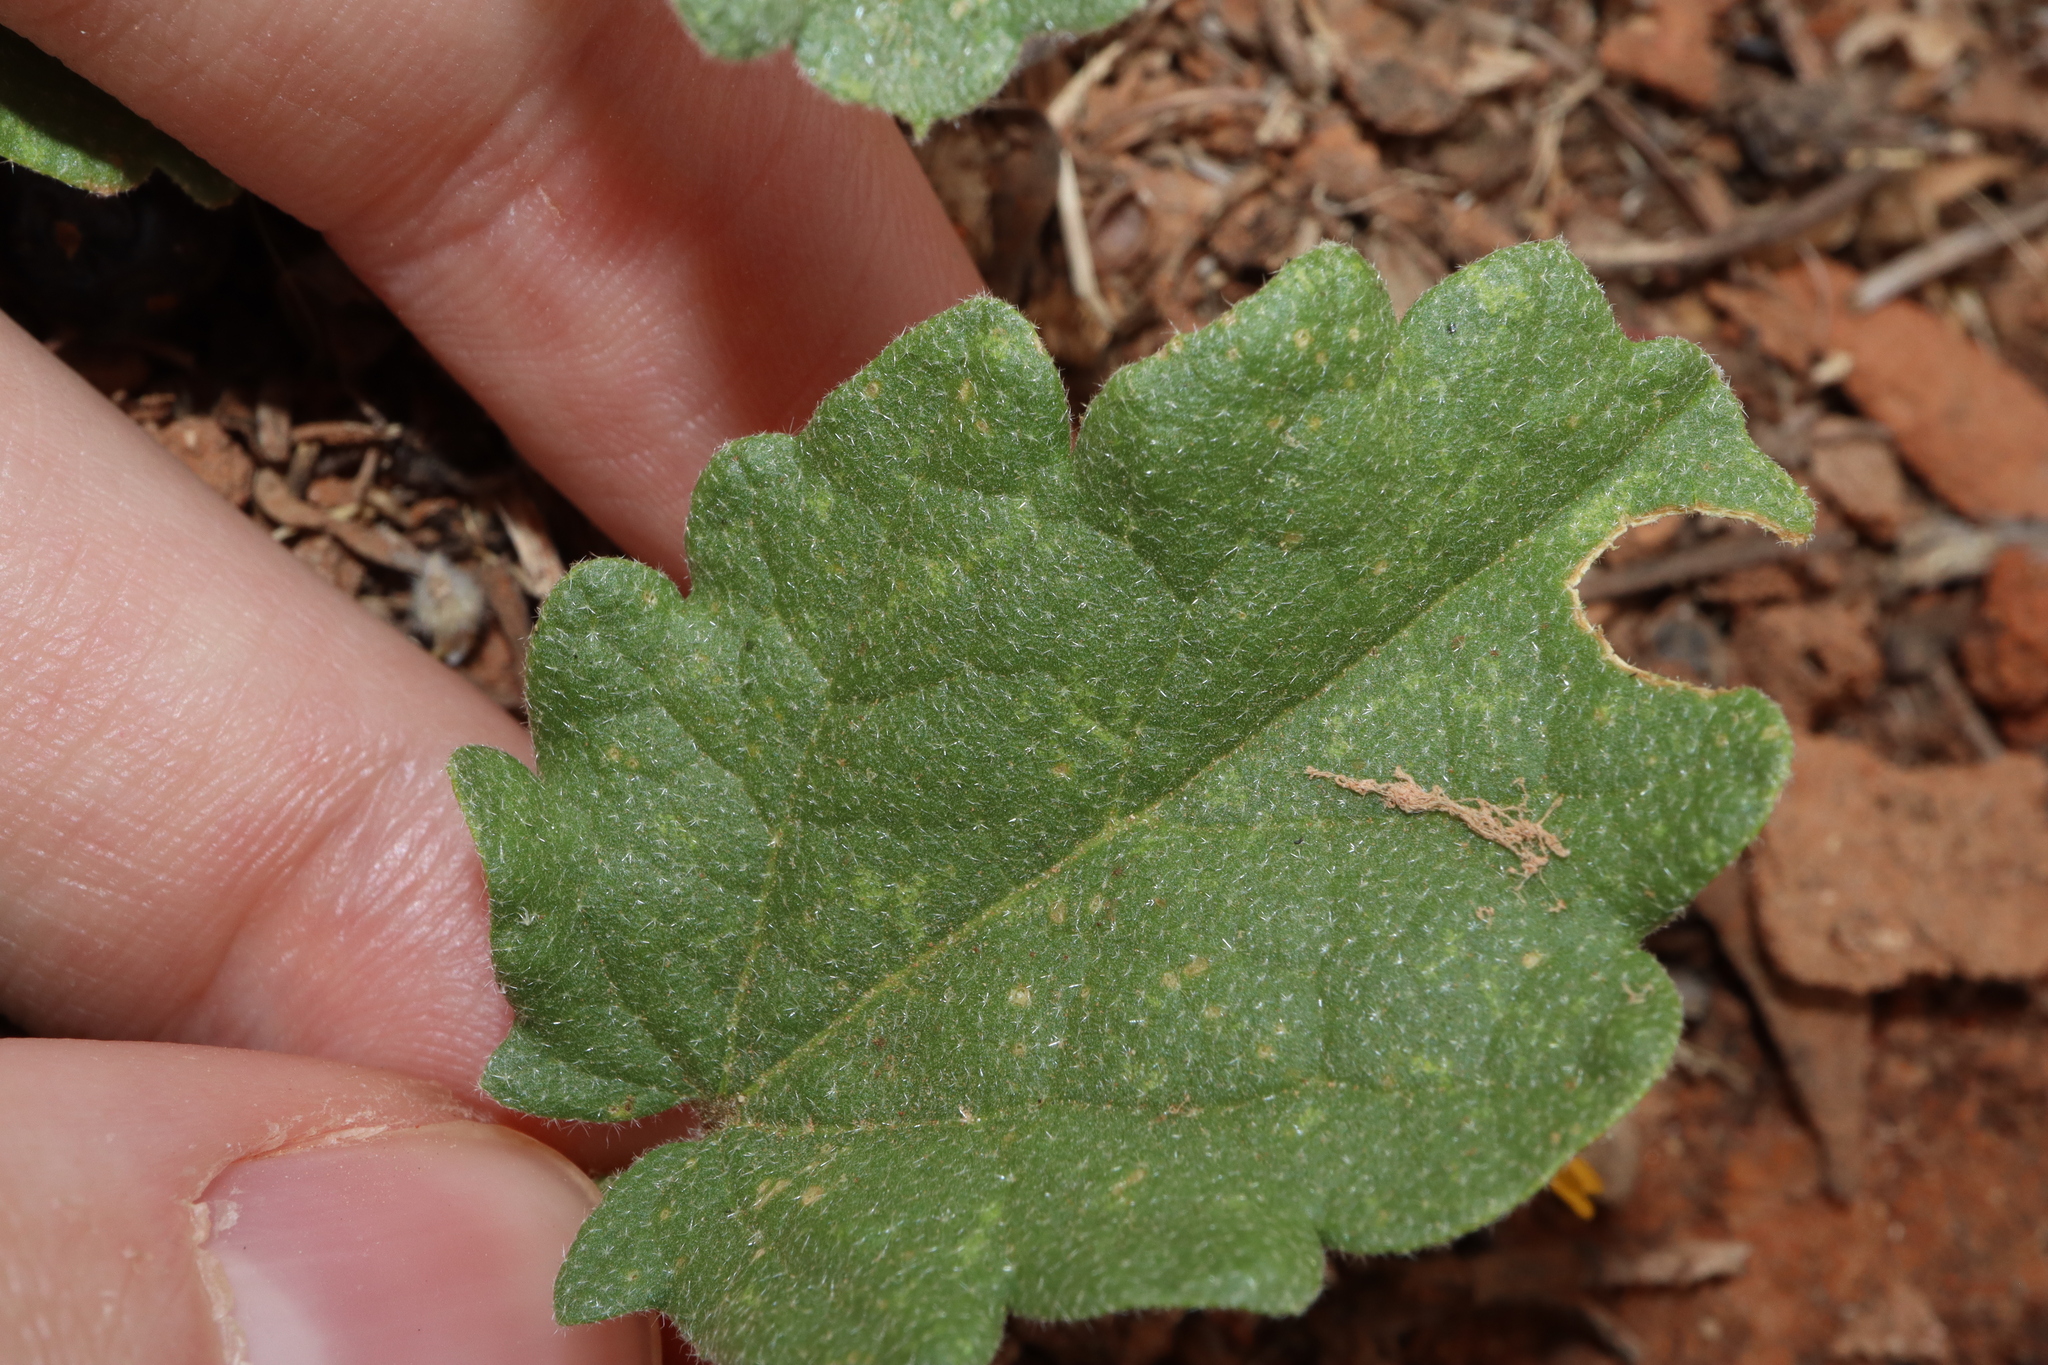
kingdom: Plantae
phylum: Tracheophyta
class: Magnoliopsida
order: Malvales
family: Malvaceae
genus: Sida
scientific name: Sida corrugata
